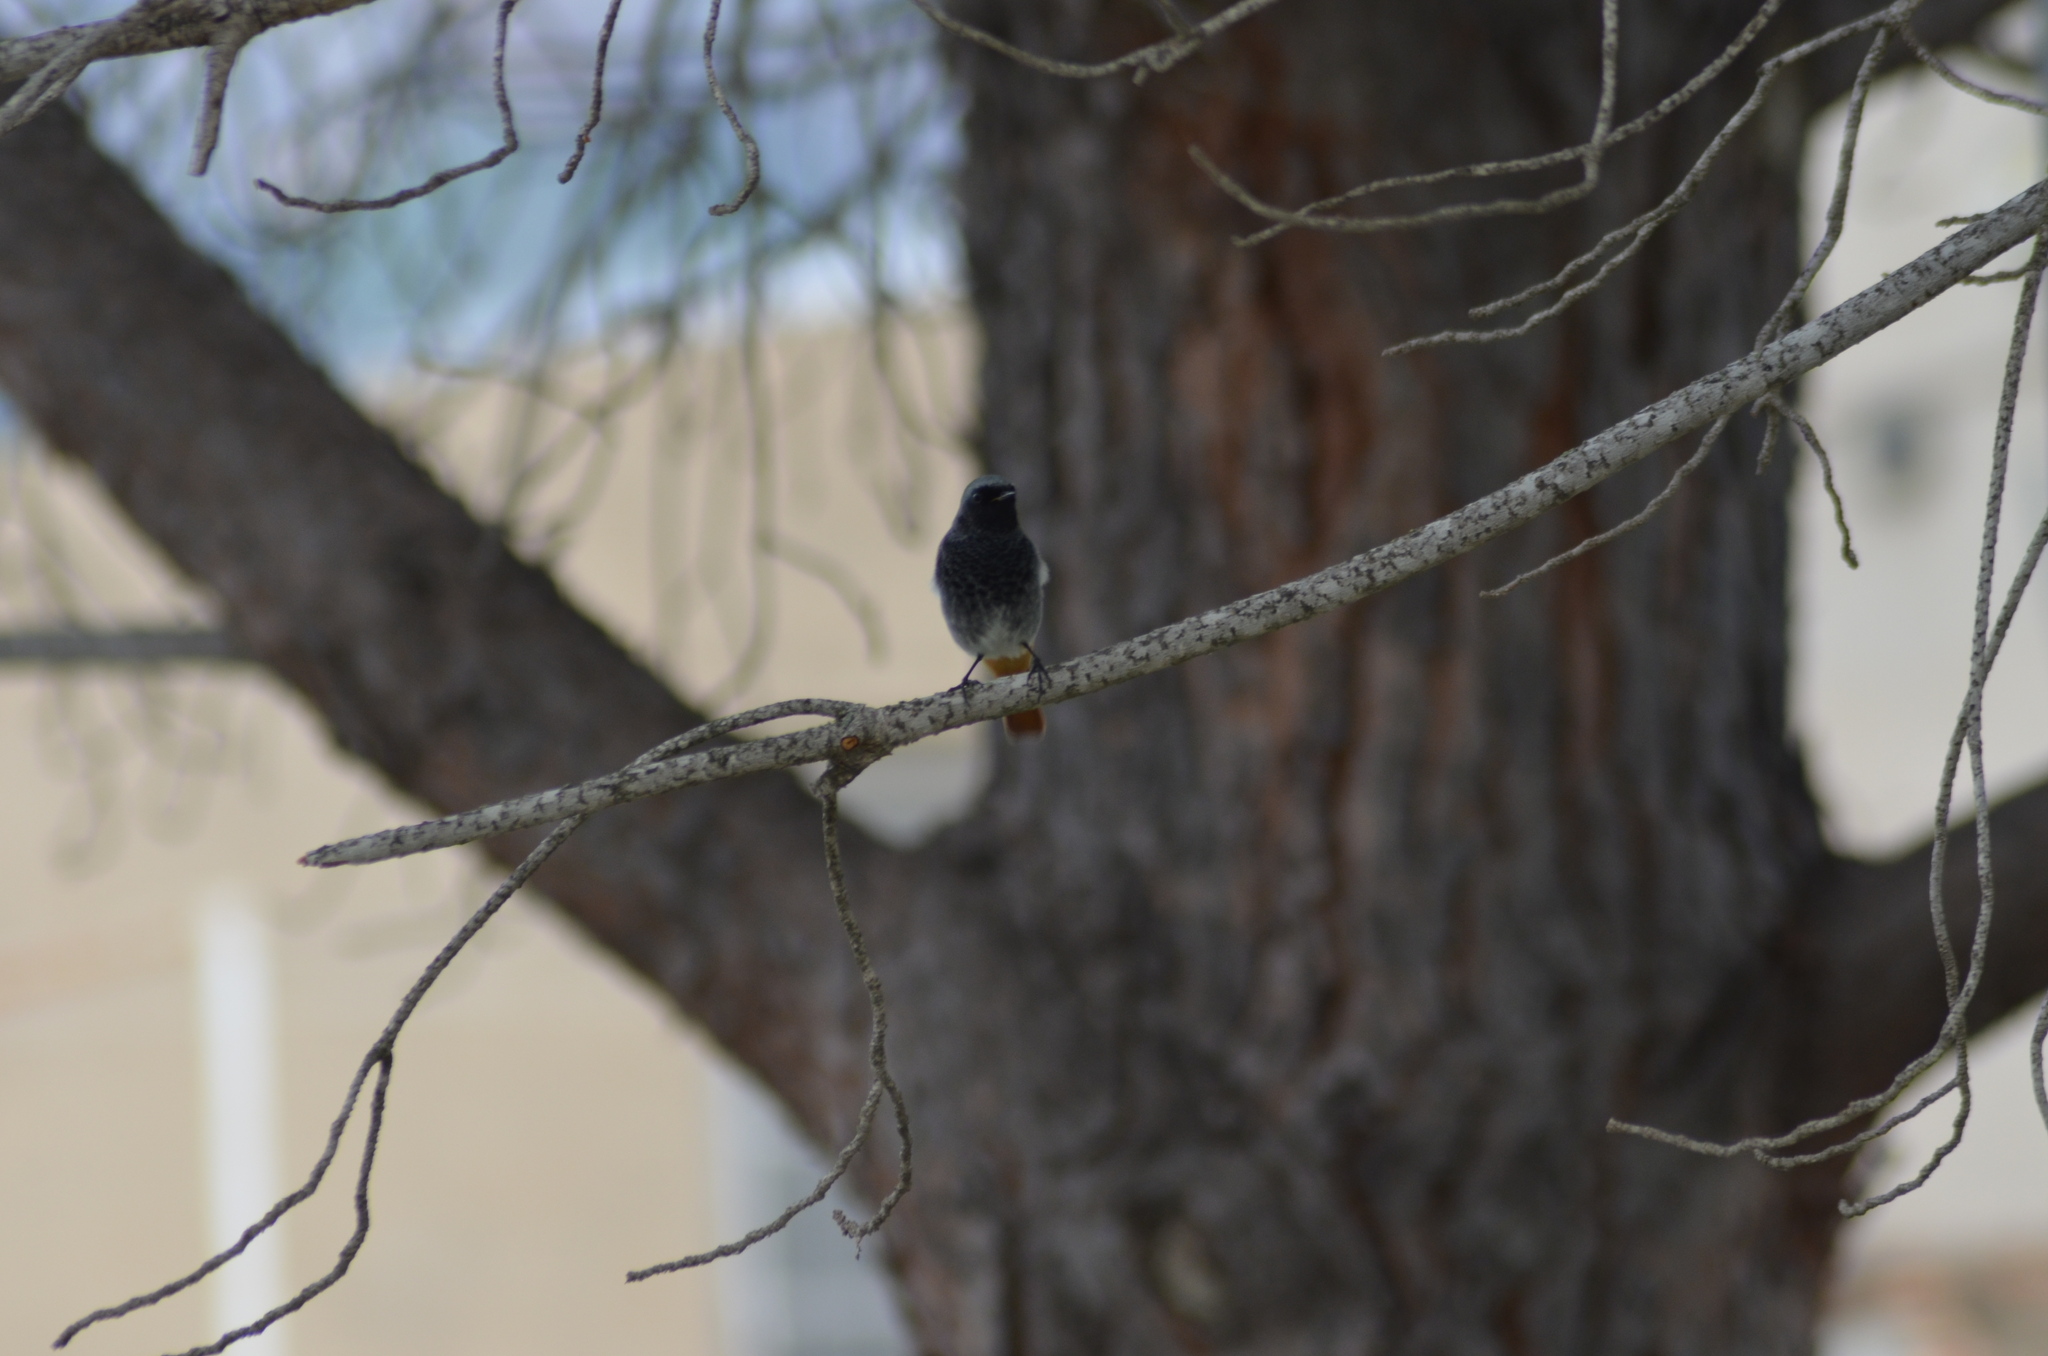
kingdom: Animalia
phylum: Chordata
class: Aves
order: Passeriformes
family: Muscicapidae
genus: Phoenicurus
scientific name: Phoenicurus ochruros
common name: Black redstart
